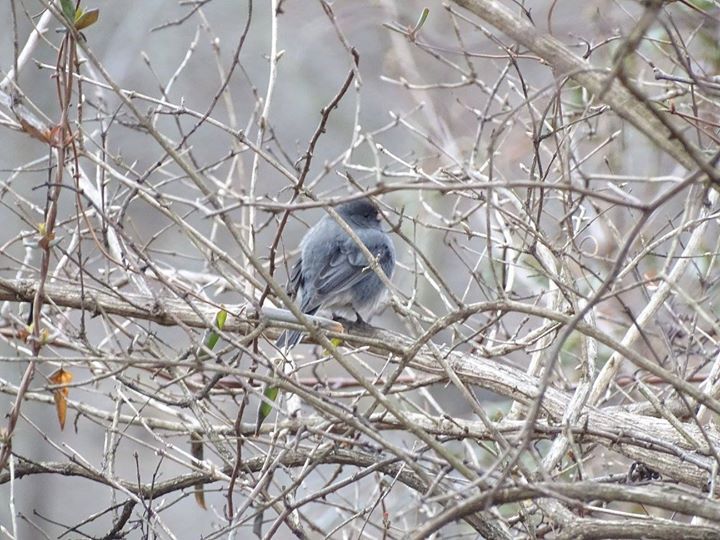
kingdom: Animalia
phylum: Chordata
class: Aves
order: Passeriformes
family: Passerellidae
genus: Junco
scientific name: Junco hyemalis
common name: Dark-eyed junco
